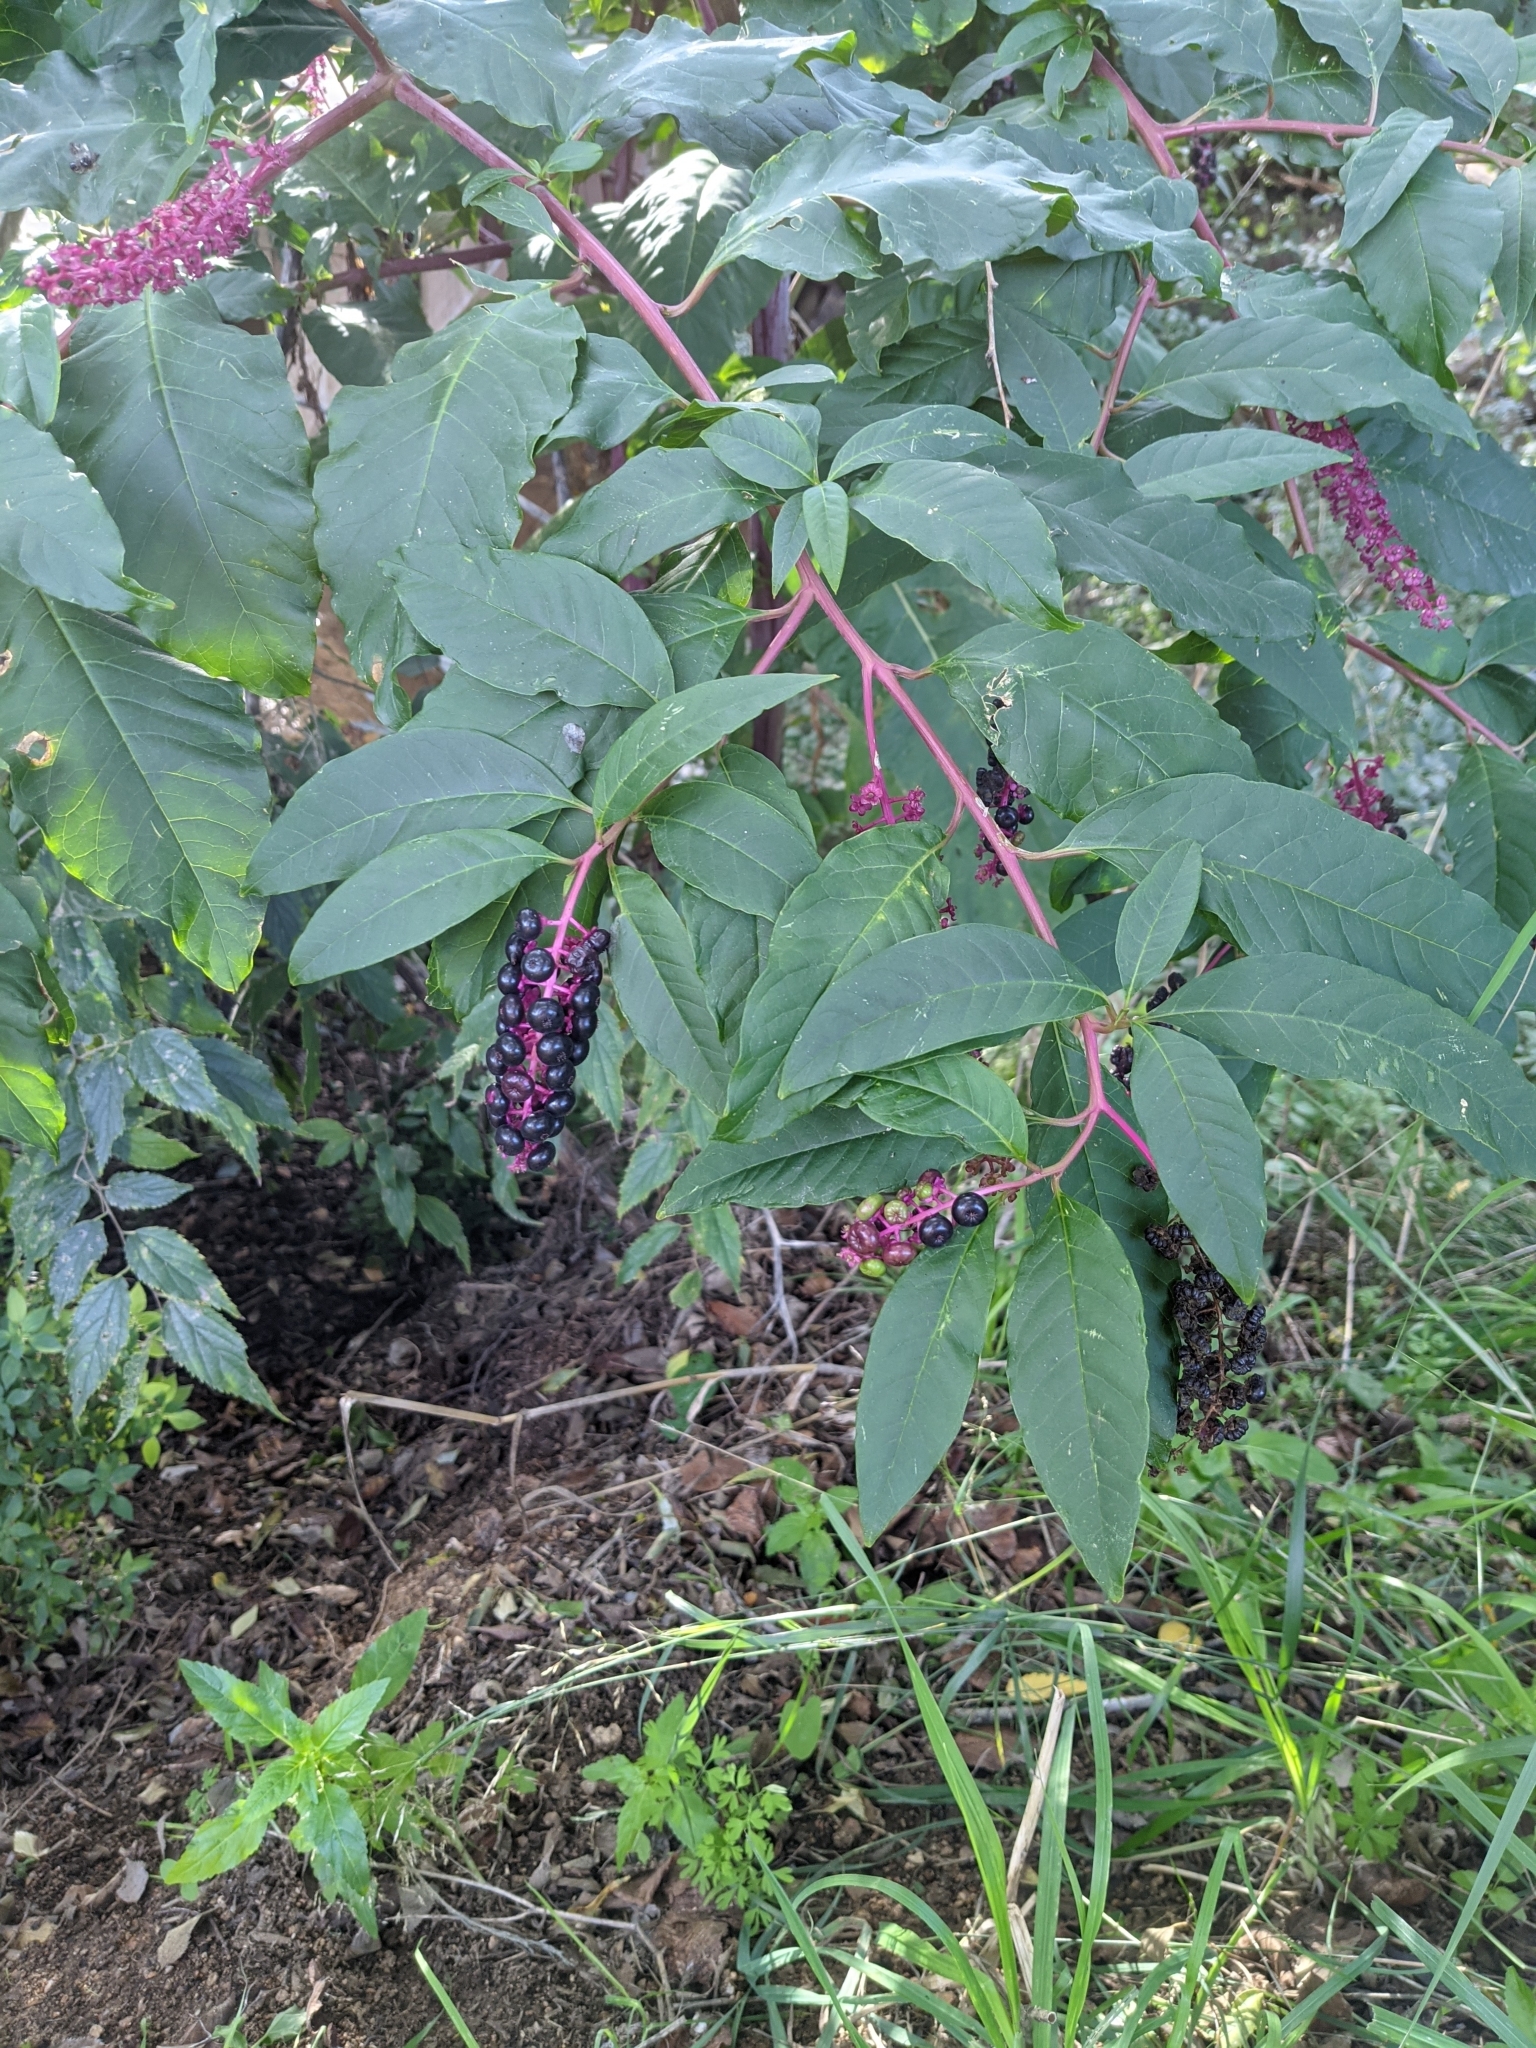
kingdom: Plantae
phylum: Tracheophyta
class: Magnoliopsida
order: Caryophyllales
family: Phytolaccaceae
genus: Phytolacca
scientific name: Phytolacca americana
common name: American pokeweed
